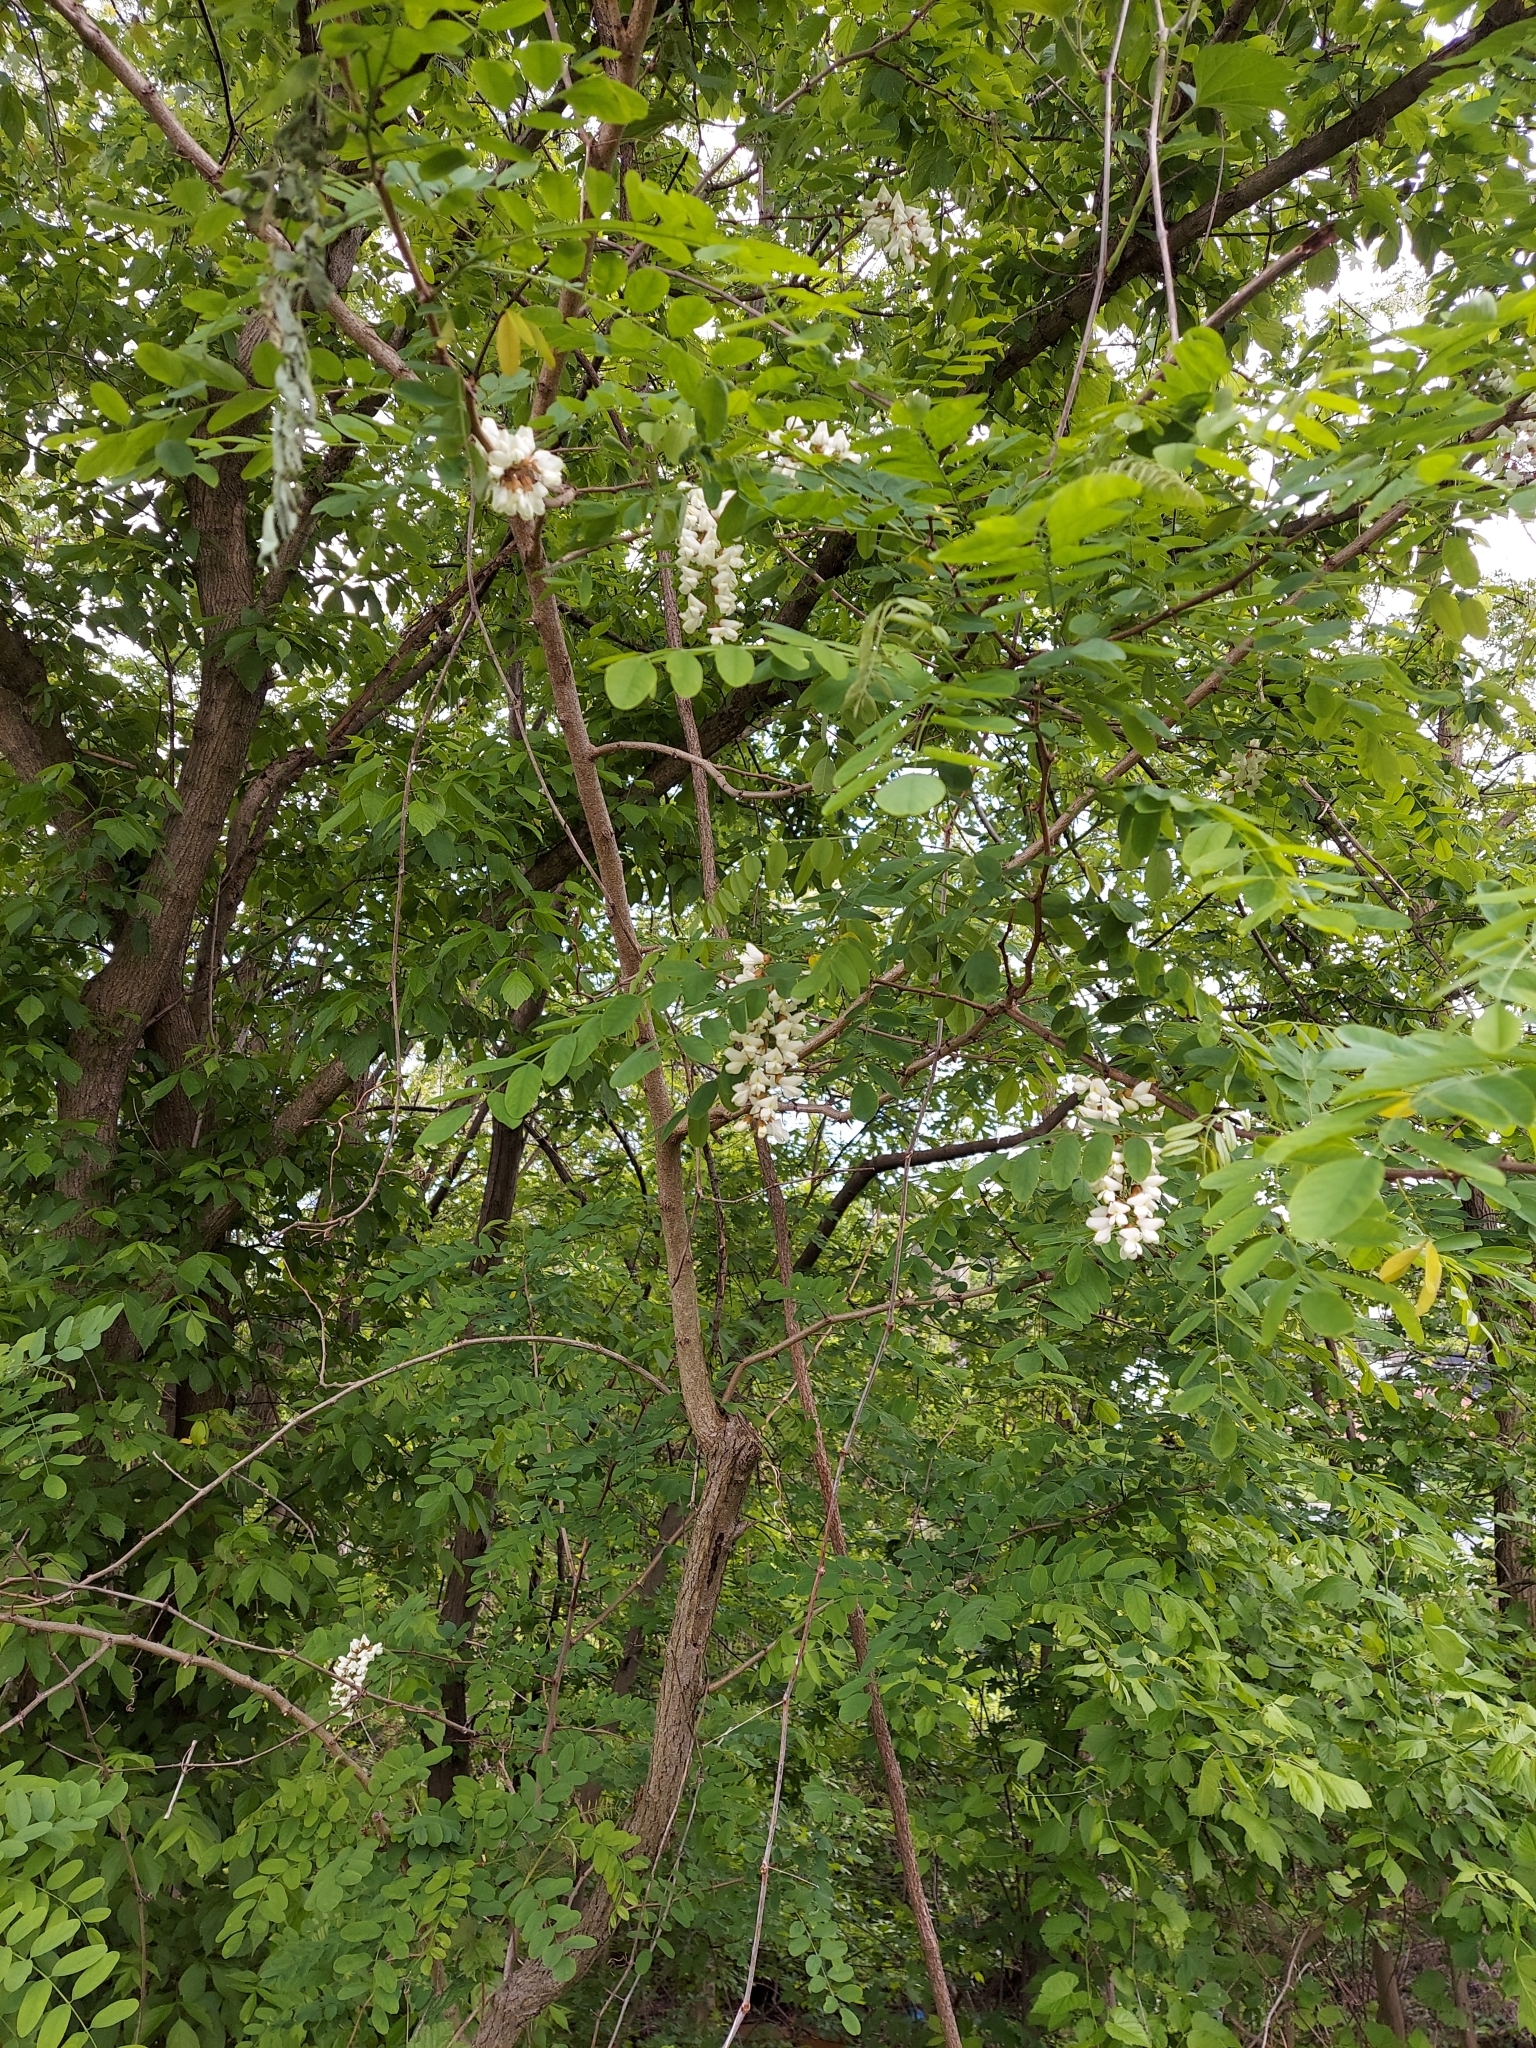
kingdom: Plantae
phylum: Tracheophyta
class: Magnoliopsida
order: Fabales
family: Fabaceae
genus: Robinia
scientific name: Robinia pseudoacacia
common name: Black locust
